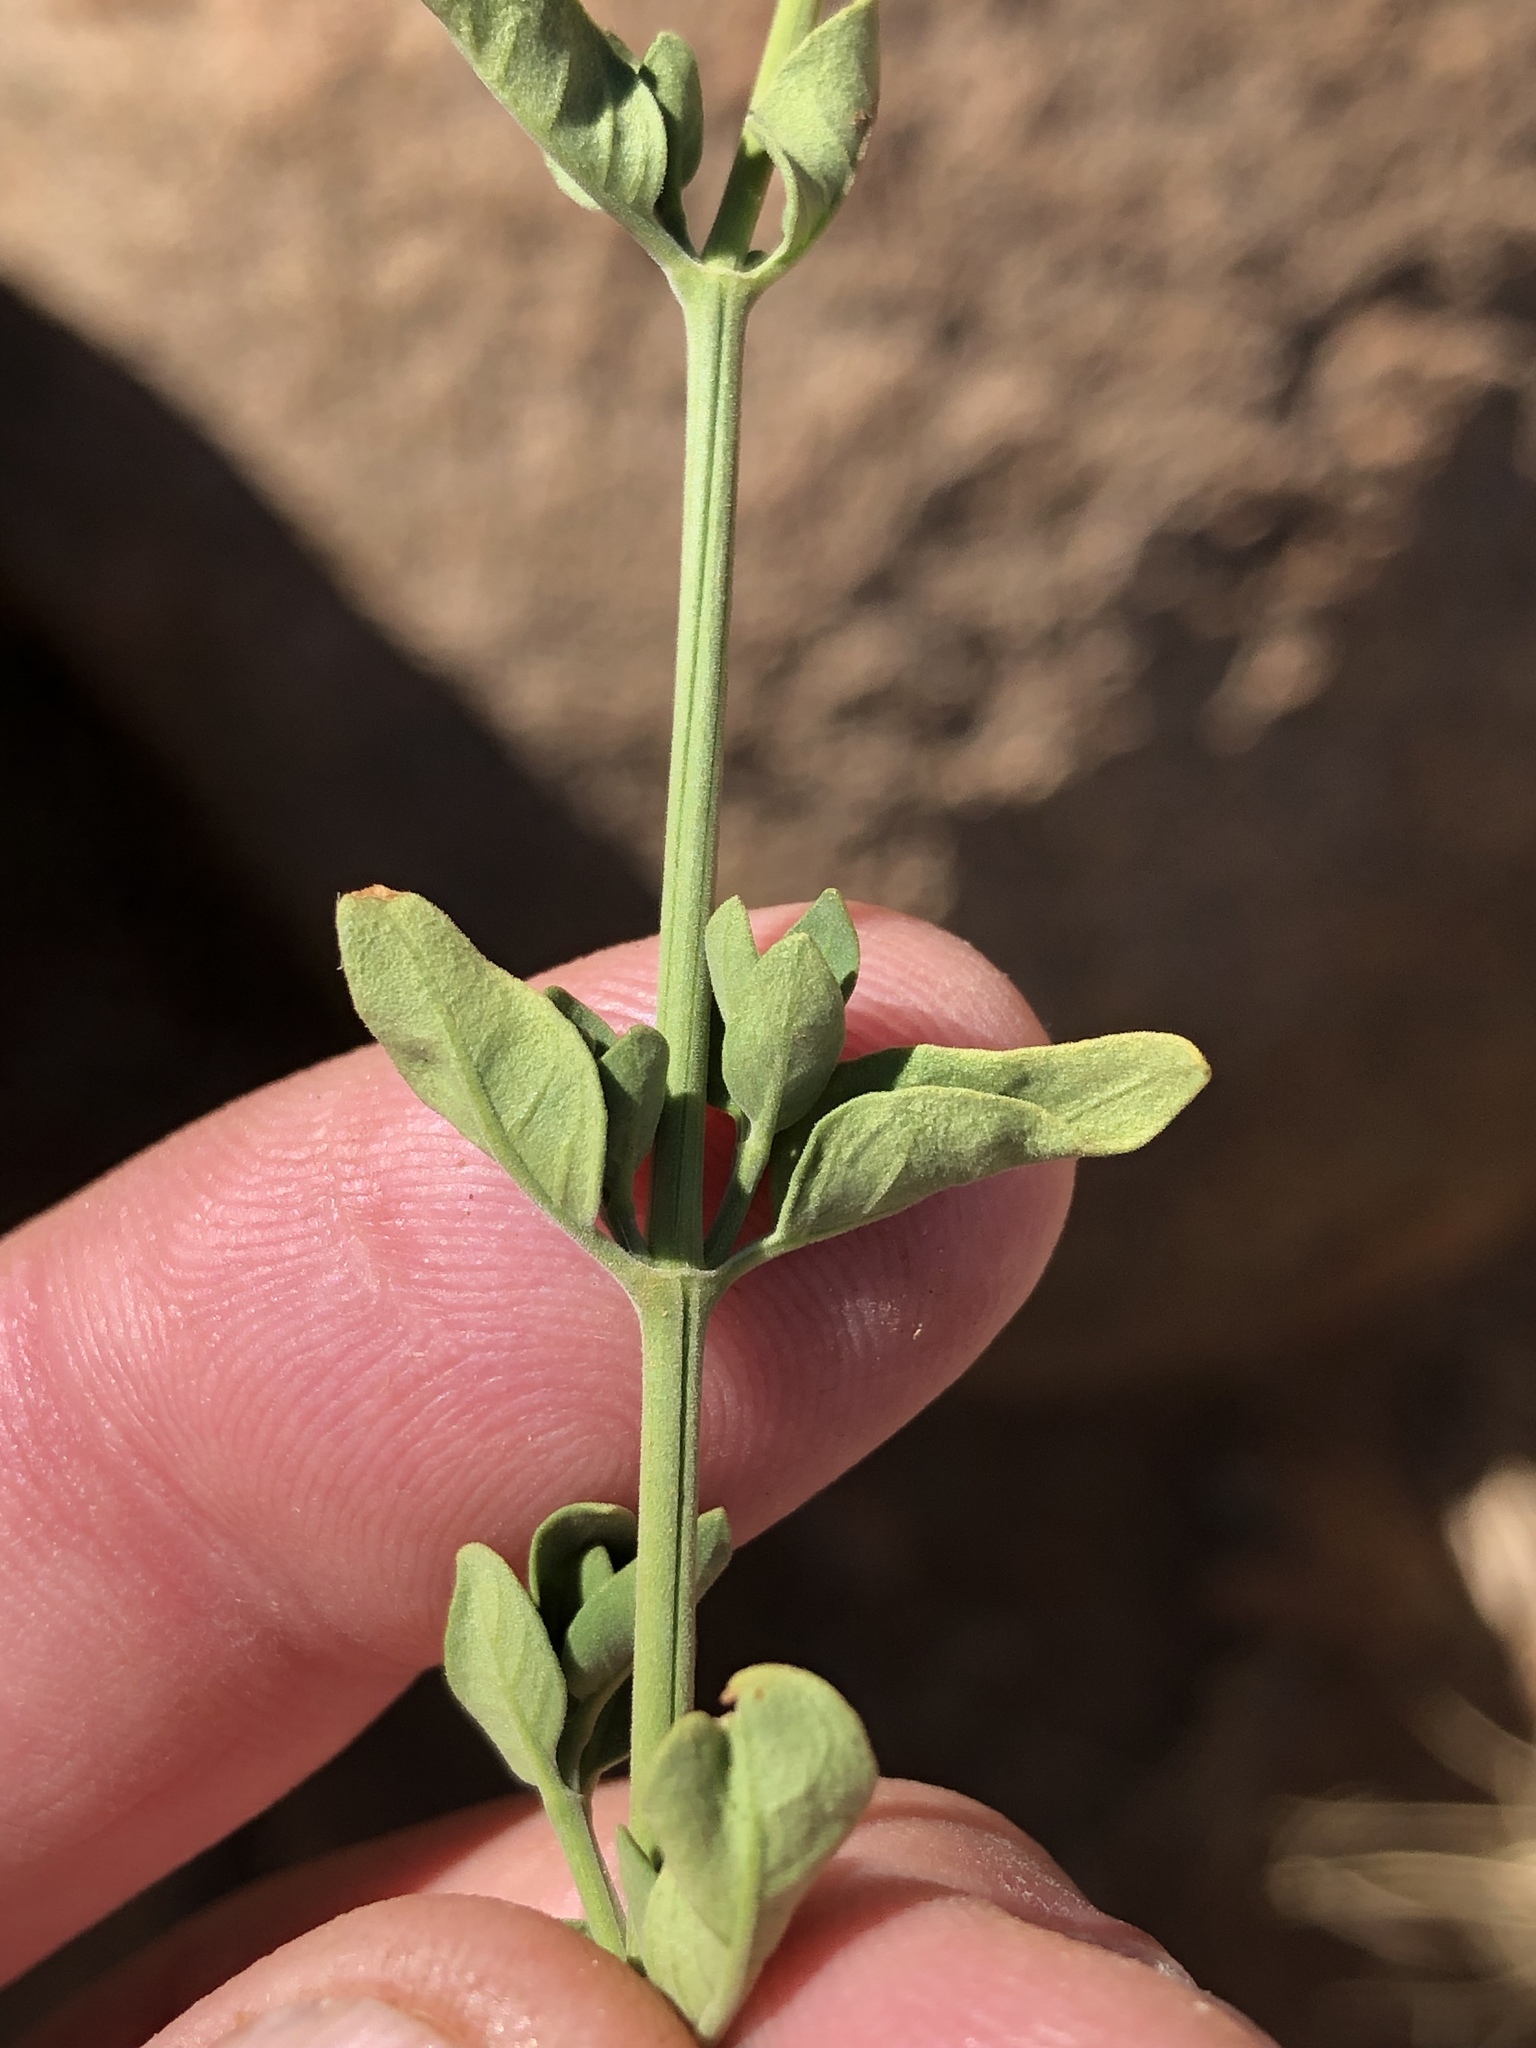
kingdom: Plantae
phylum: Tracheophyta
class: Magnoliopsida
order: Lamiales
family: Acanthaceae
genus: Hypoestes
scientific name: Hypoestes forskaolii
